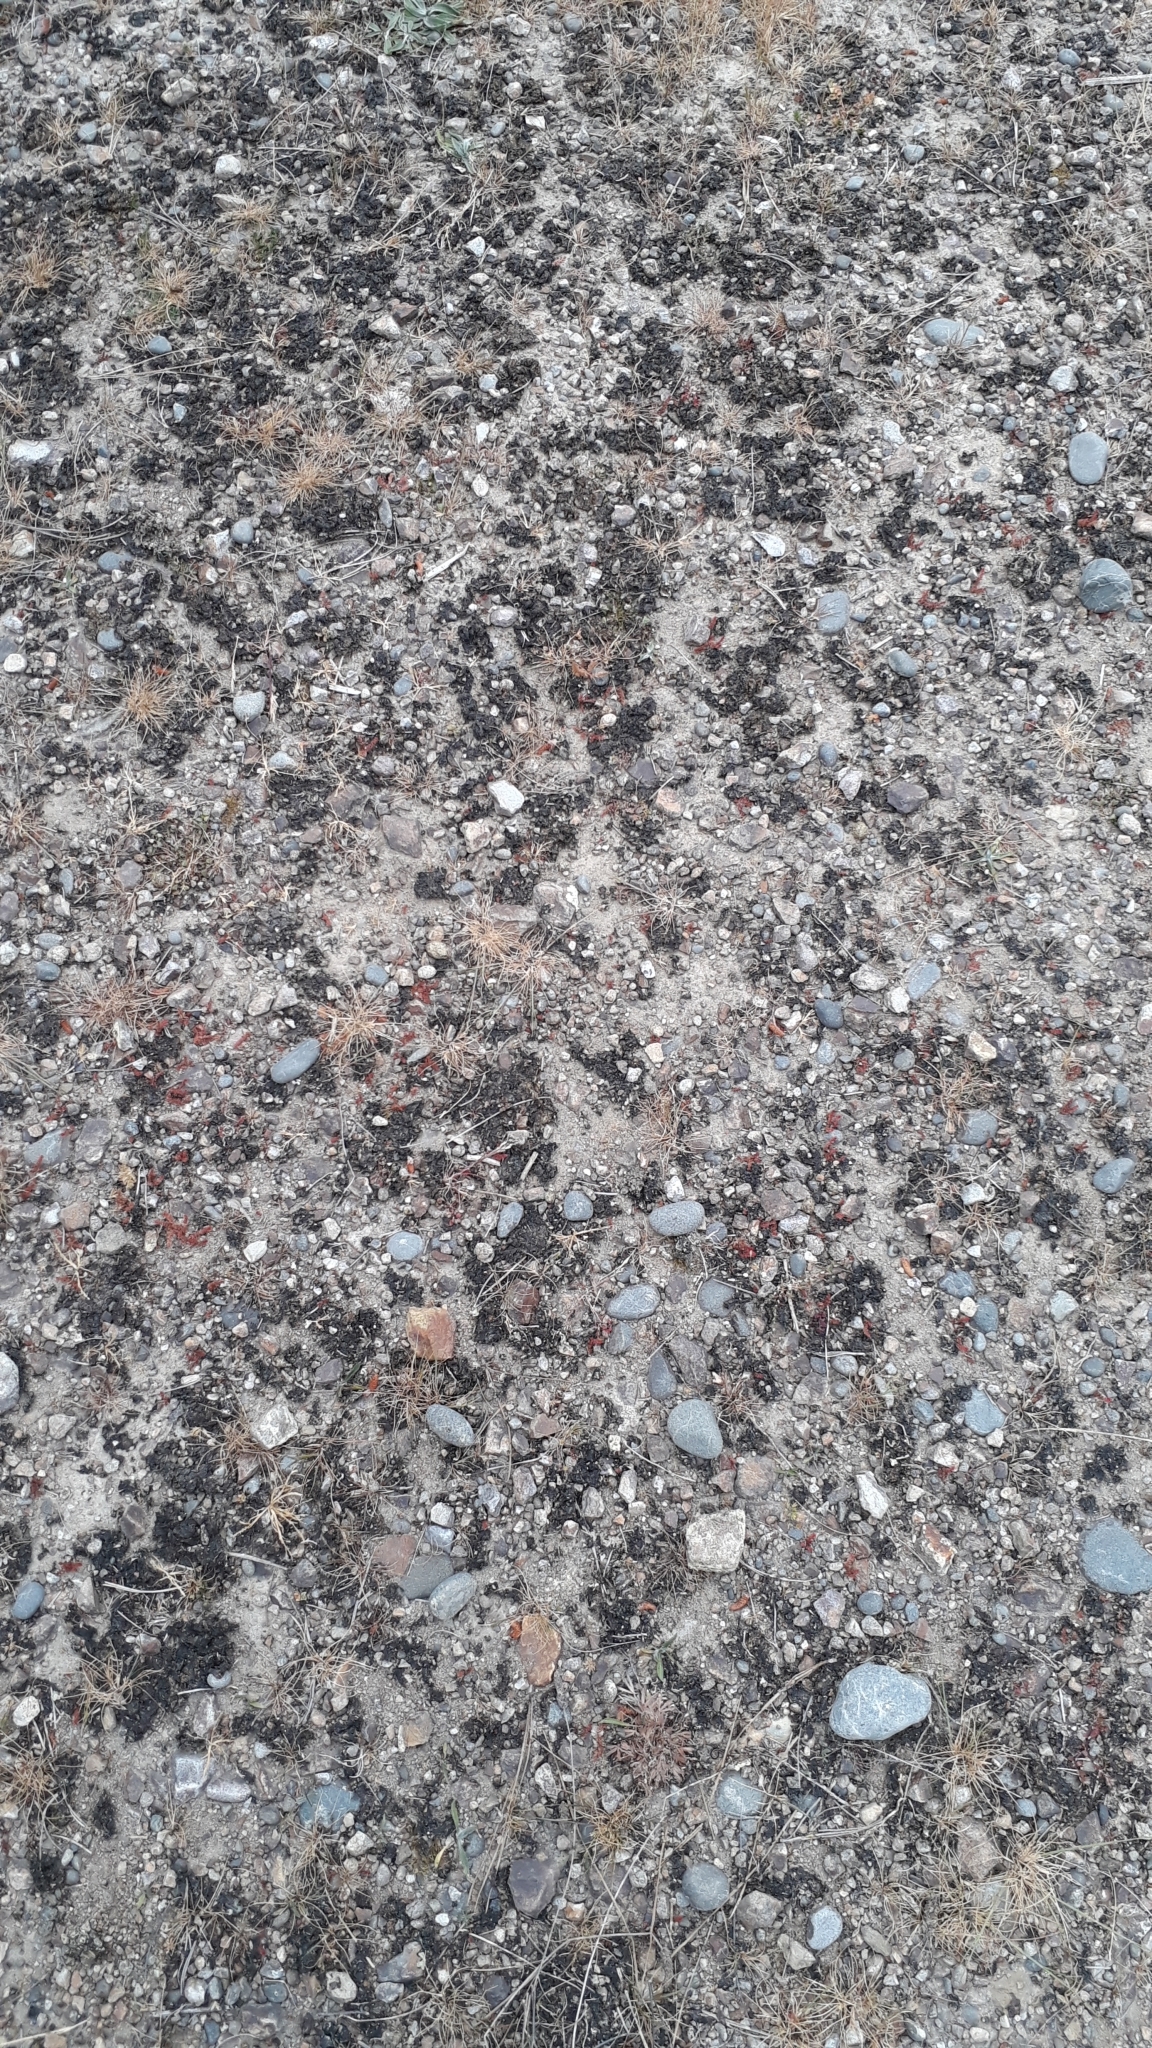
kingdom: Bacteria
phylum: Cyanobacteria
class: Cyanobacteriia
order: Cyanobacteriales
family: Nostocaceae
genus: Nostoc
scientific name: Nostoc commune
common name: Star jelly
